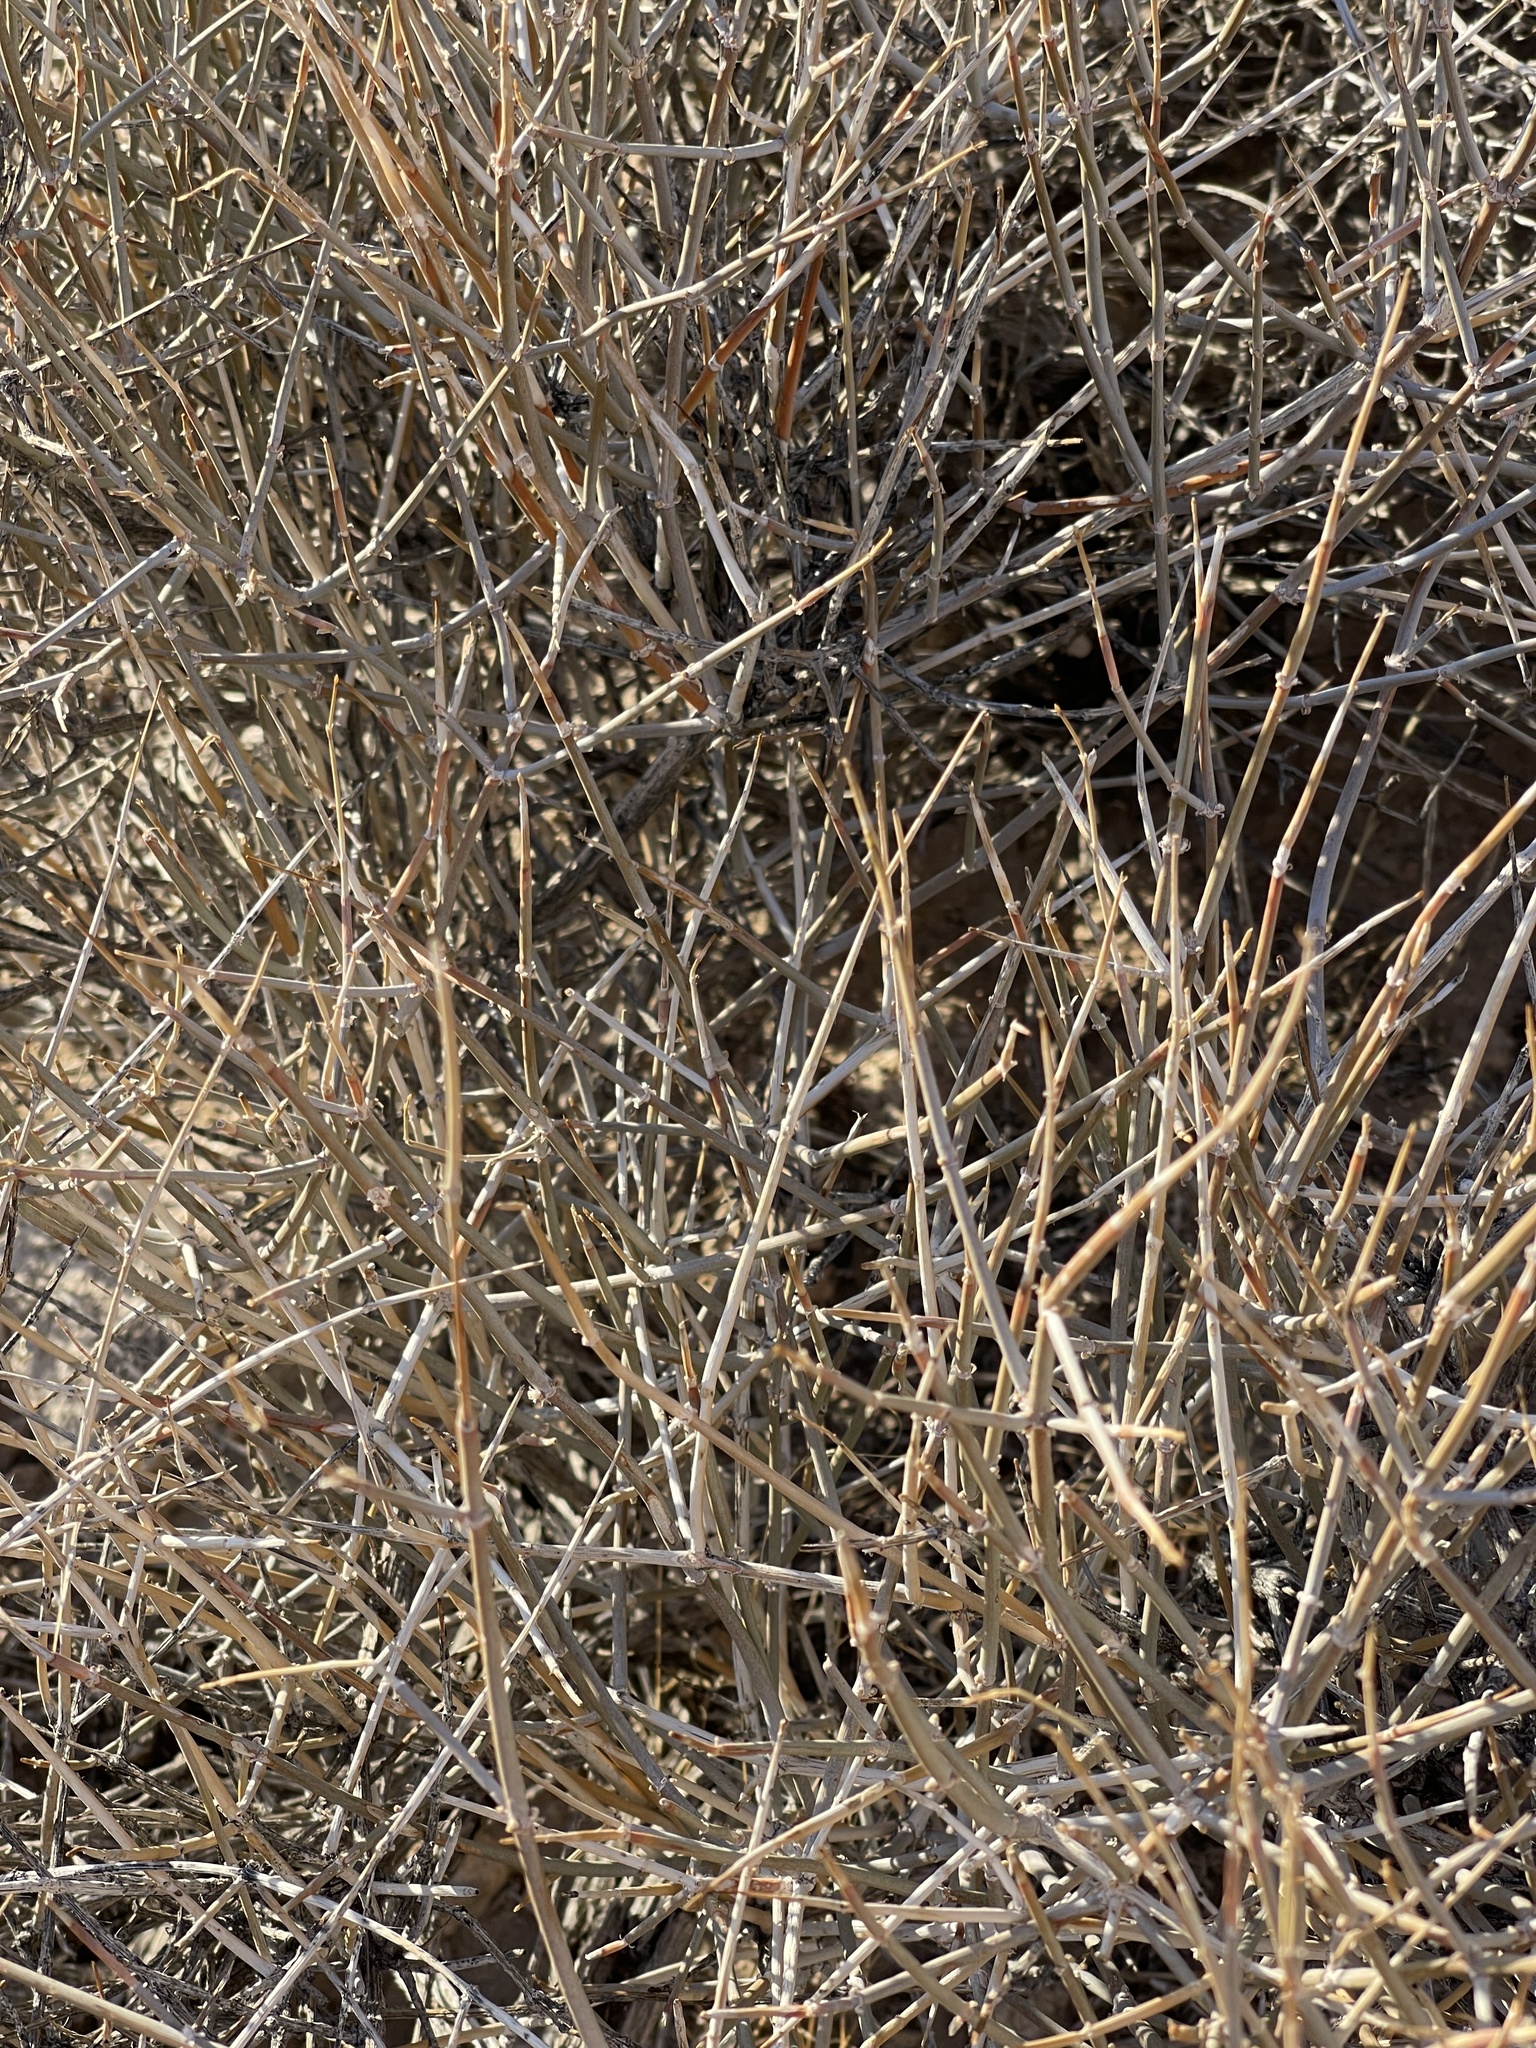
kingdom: Plantae
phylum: Tracheophyta
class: Gnetopsida
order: Ephedrales
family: Ephedraceae
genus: Ephedra
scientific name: Ephedra nevadensis
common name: Gray ephedra
